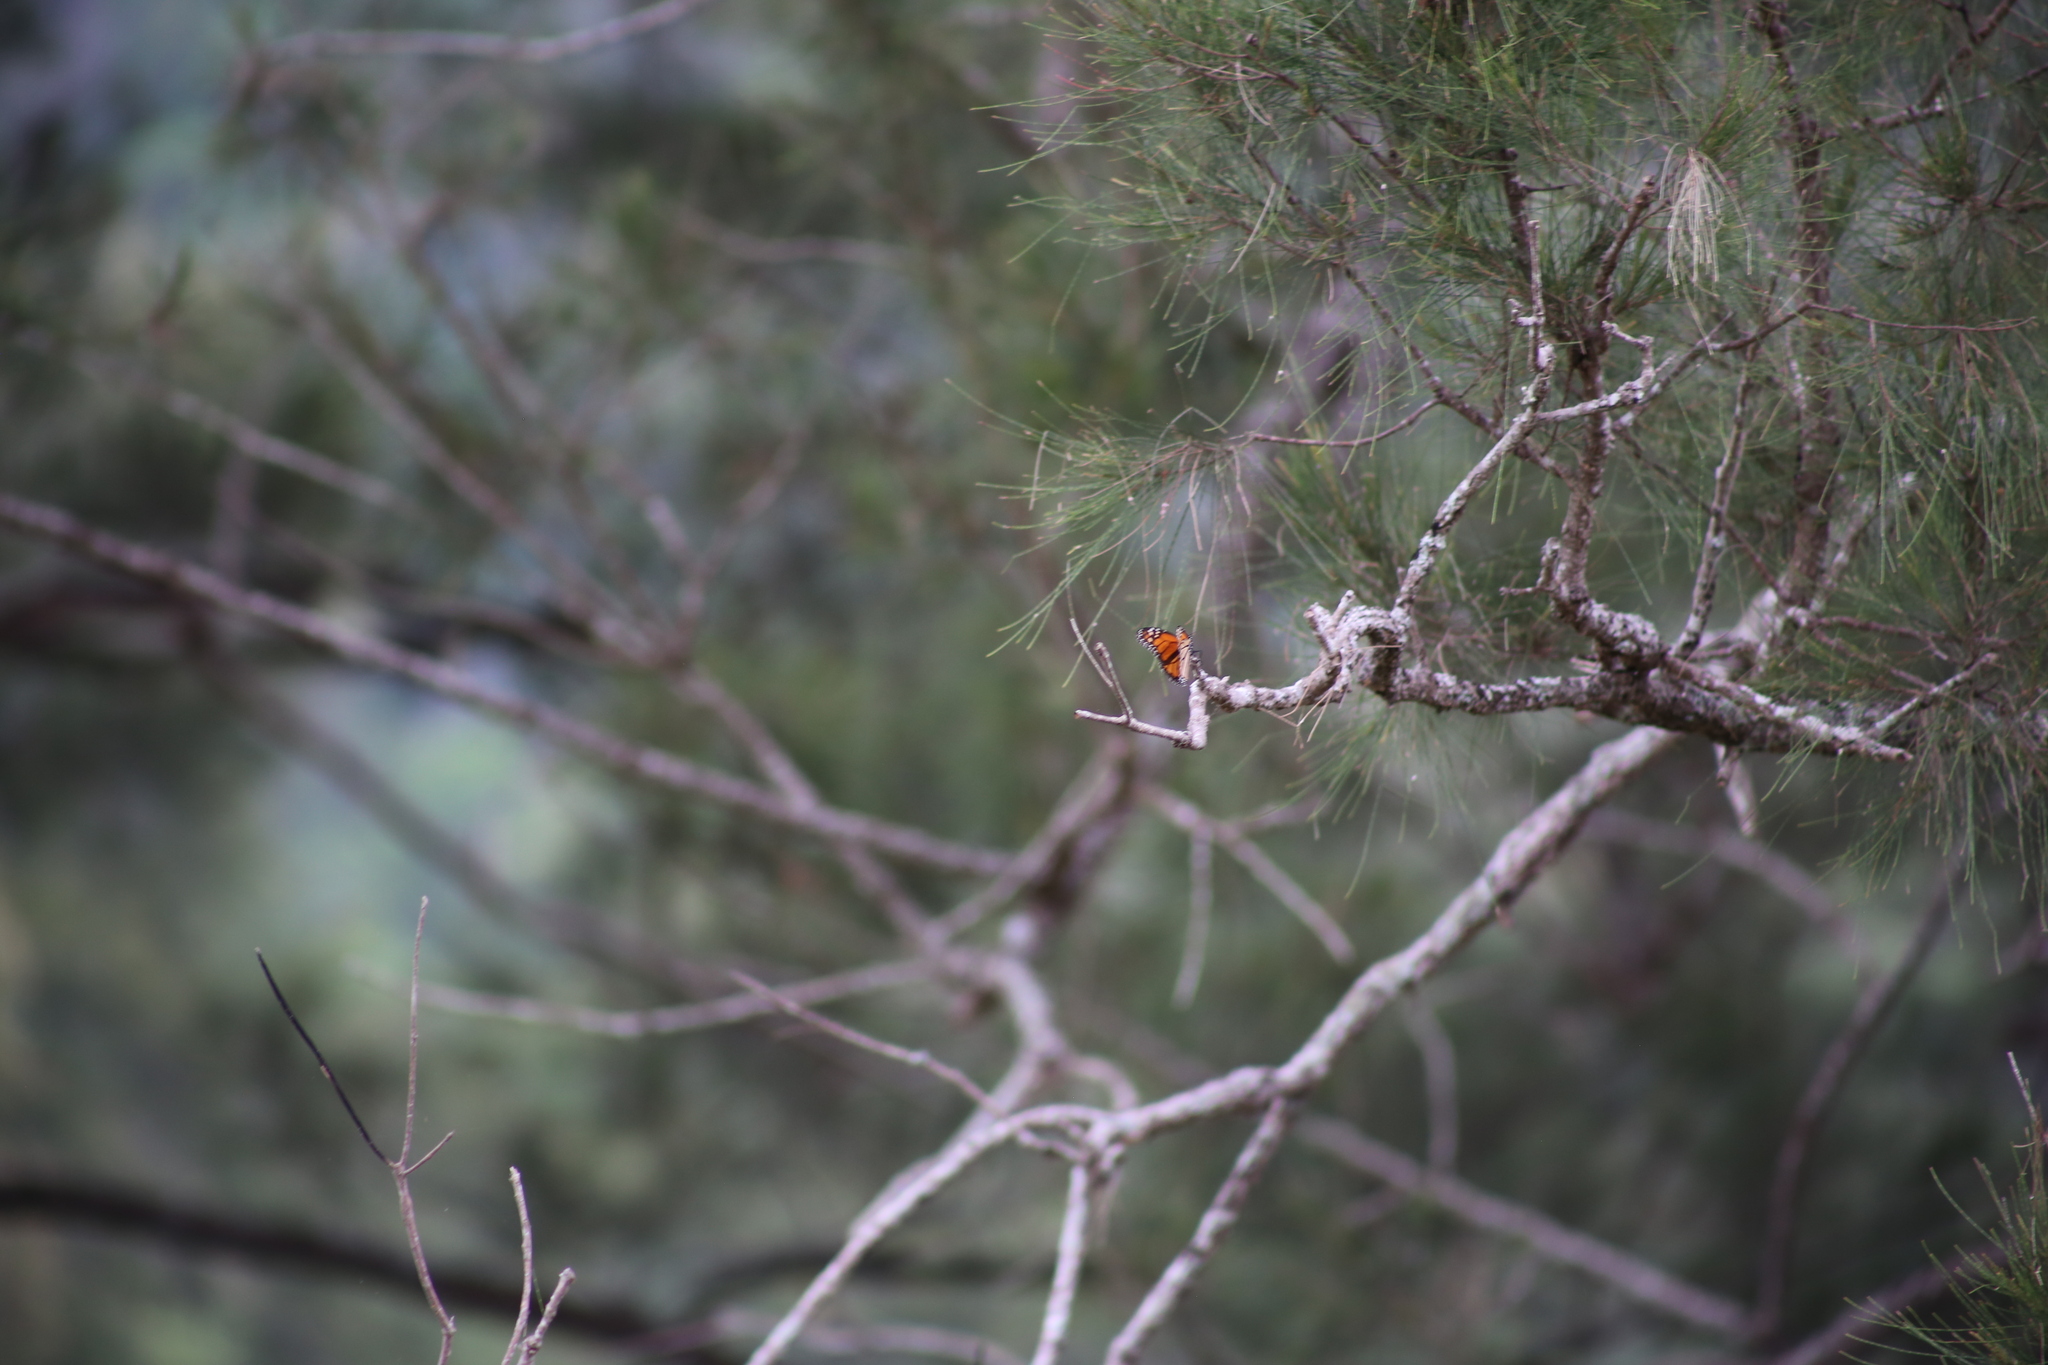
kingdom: Animalia
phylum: Arthropoda
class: Insecta
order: Lepidoptera
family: Nymphalidae
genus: Danaus
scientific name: Danaus plexippus
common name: Monarch
